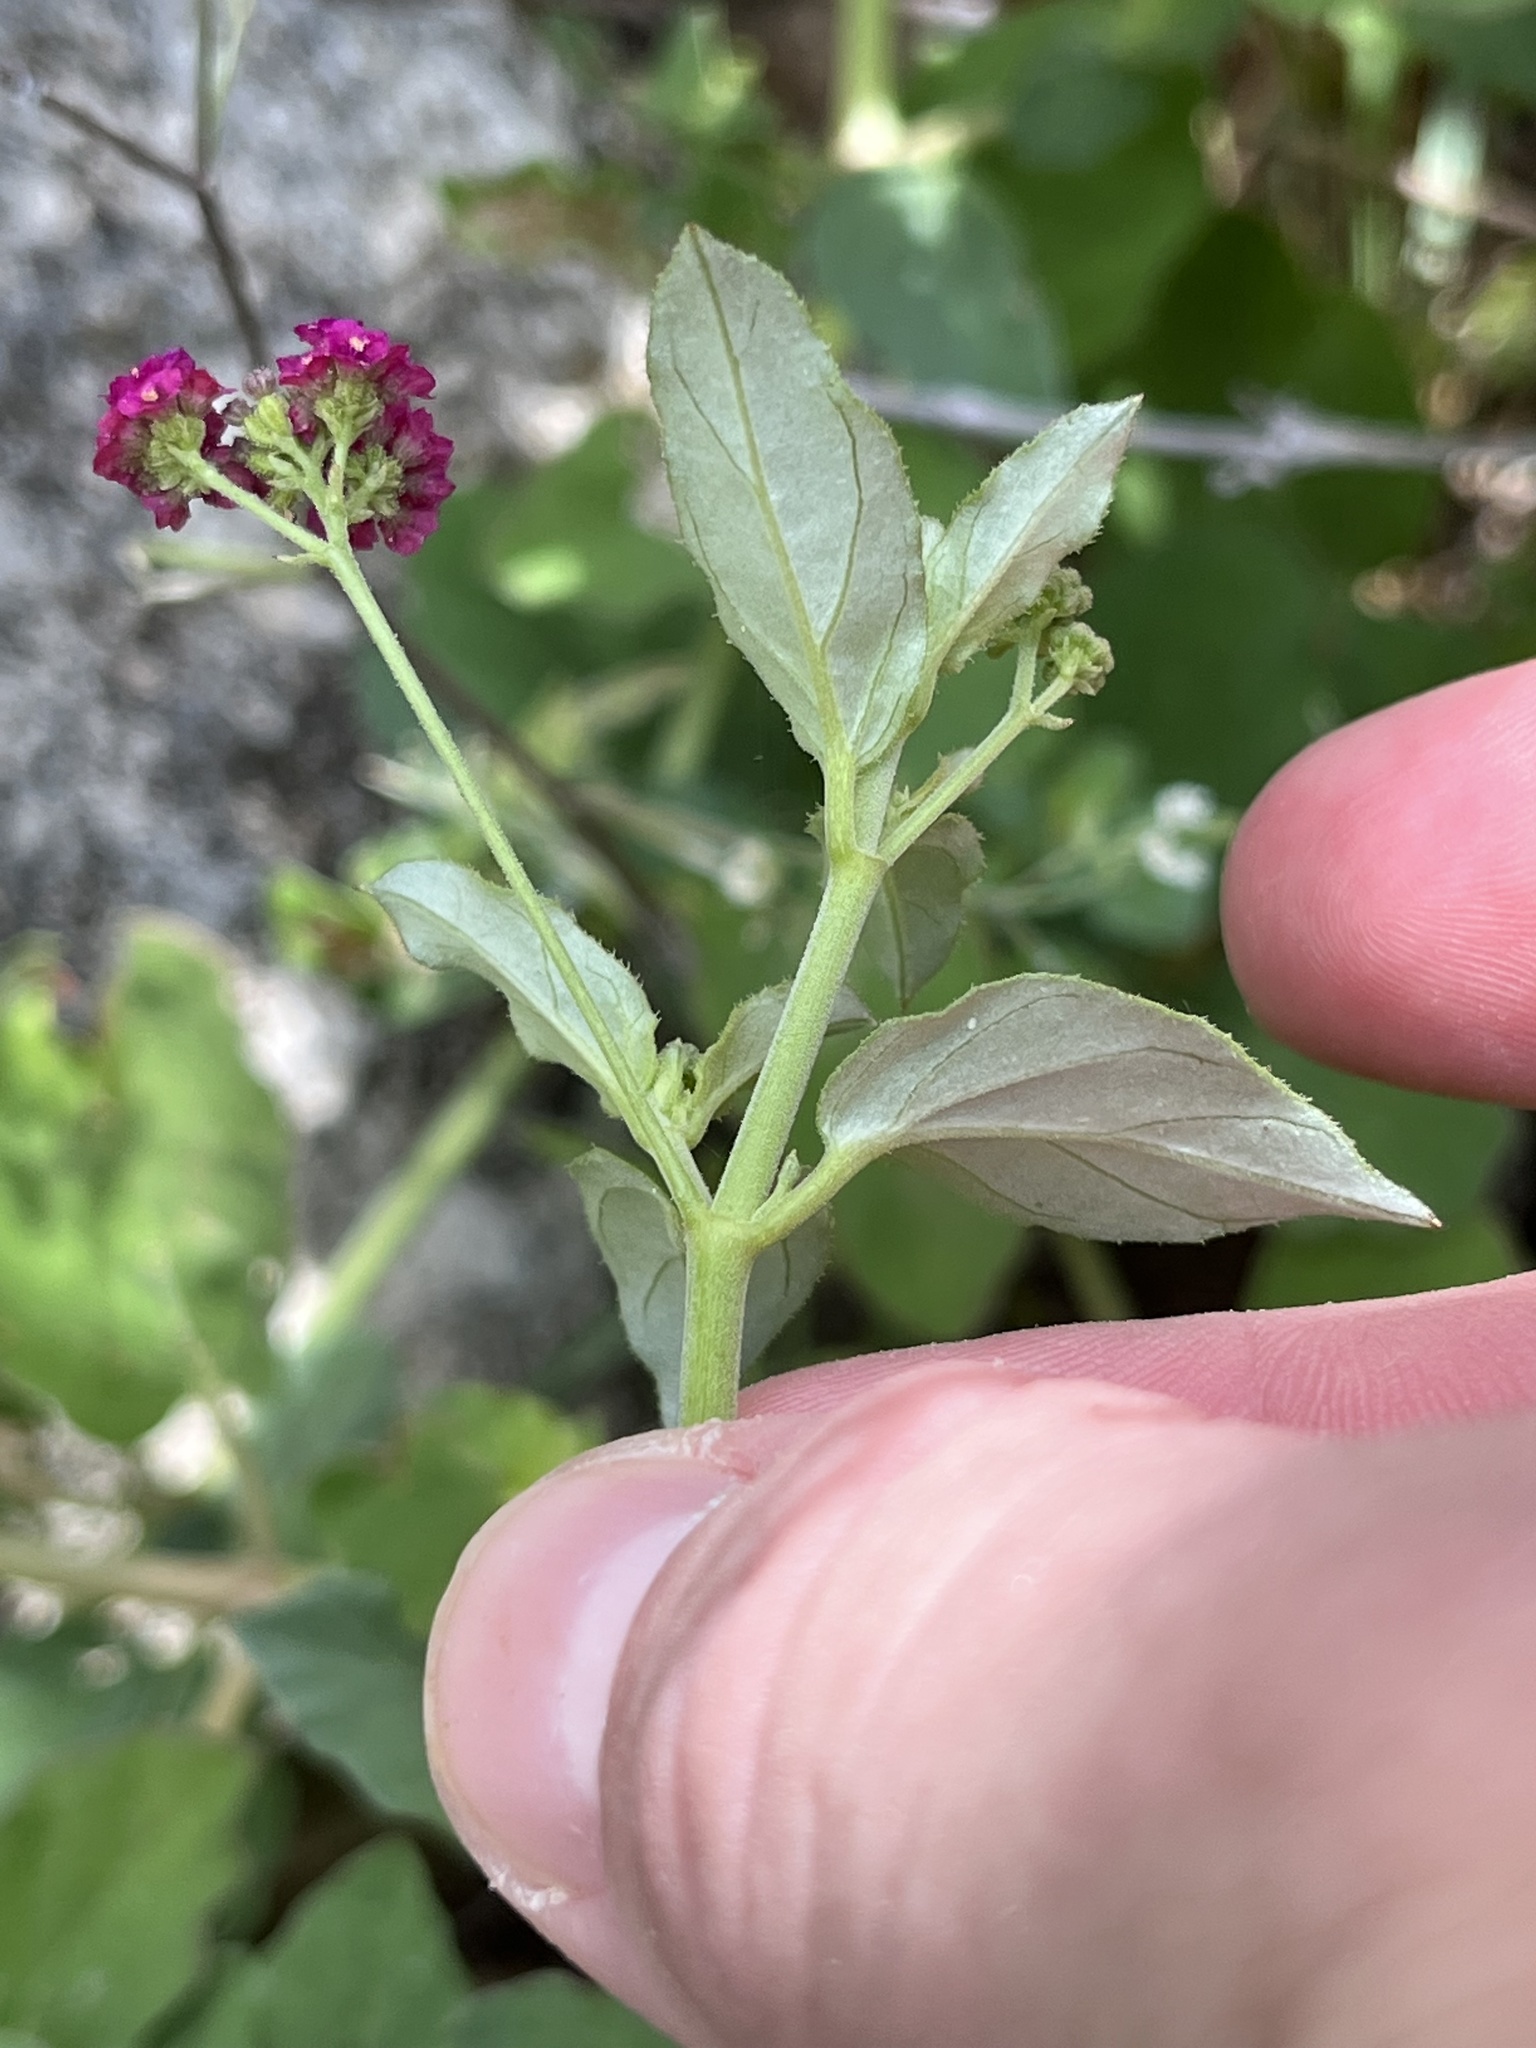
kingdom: Plantae
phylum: Tracheophyta
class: Magnoliopsida
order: Caryophyllales
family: Nyctaginaceae
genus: Boerhavia
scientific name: Boerhavia coccinea
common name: Scarlet spiderling
